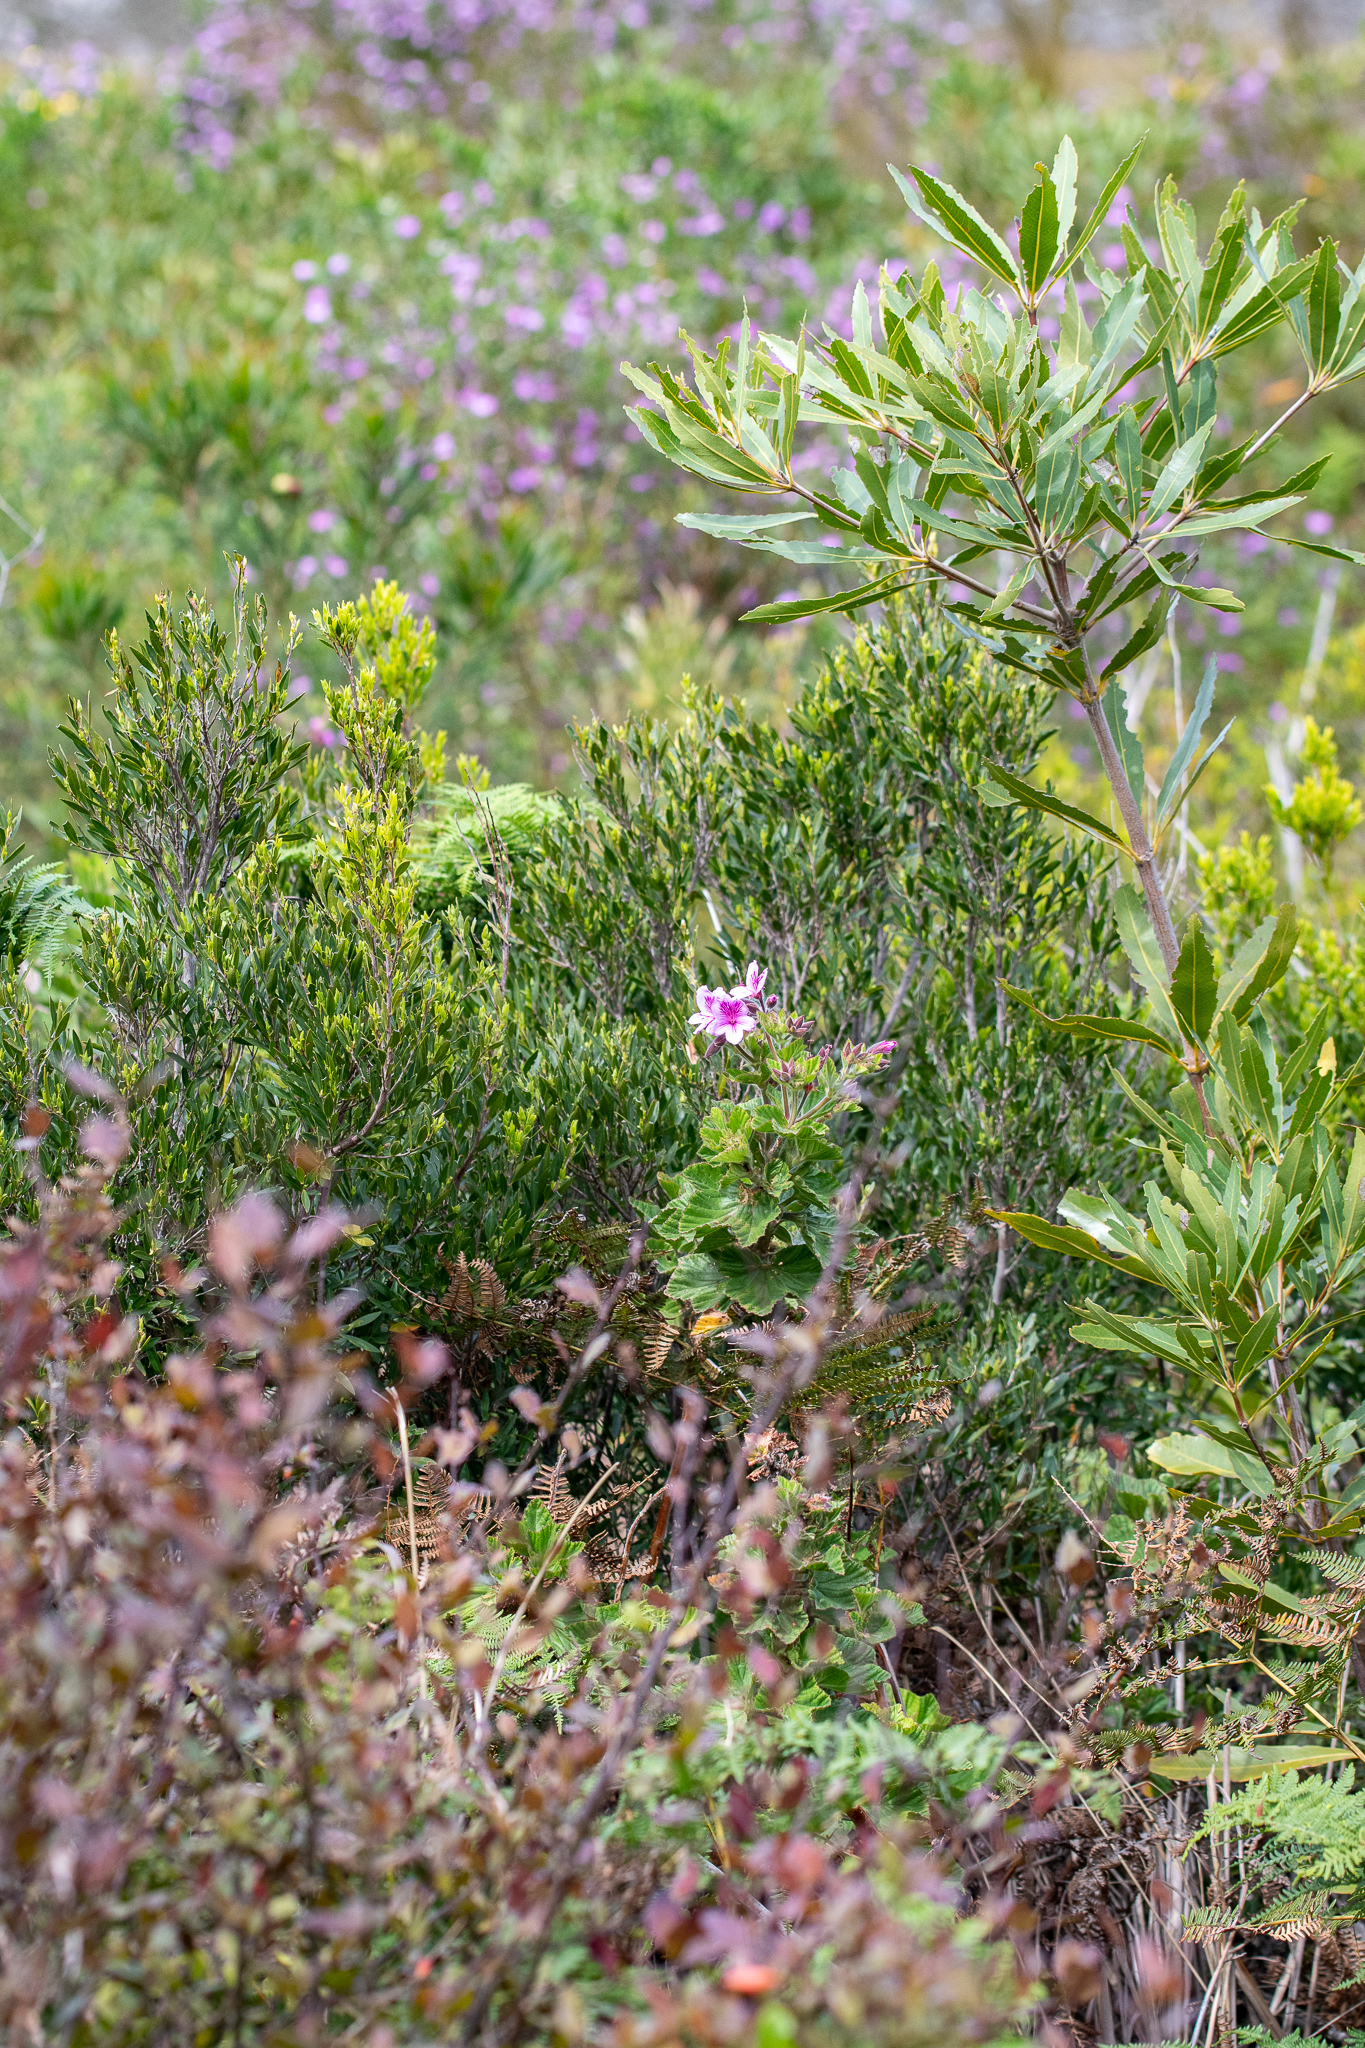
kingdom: Plantae
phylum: Tracheophyta
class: Magnoliopsida
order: Geraniales
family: Geraniaceae
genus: Pelargonium
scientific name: Pelargonium cucullatum
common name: Tree pelargonium
